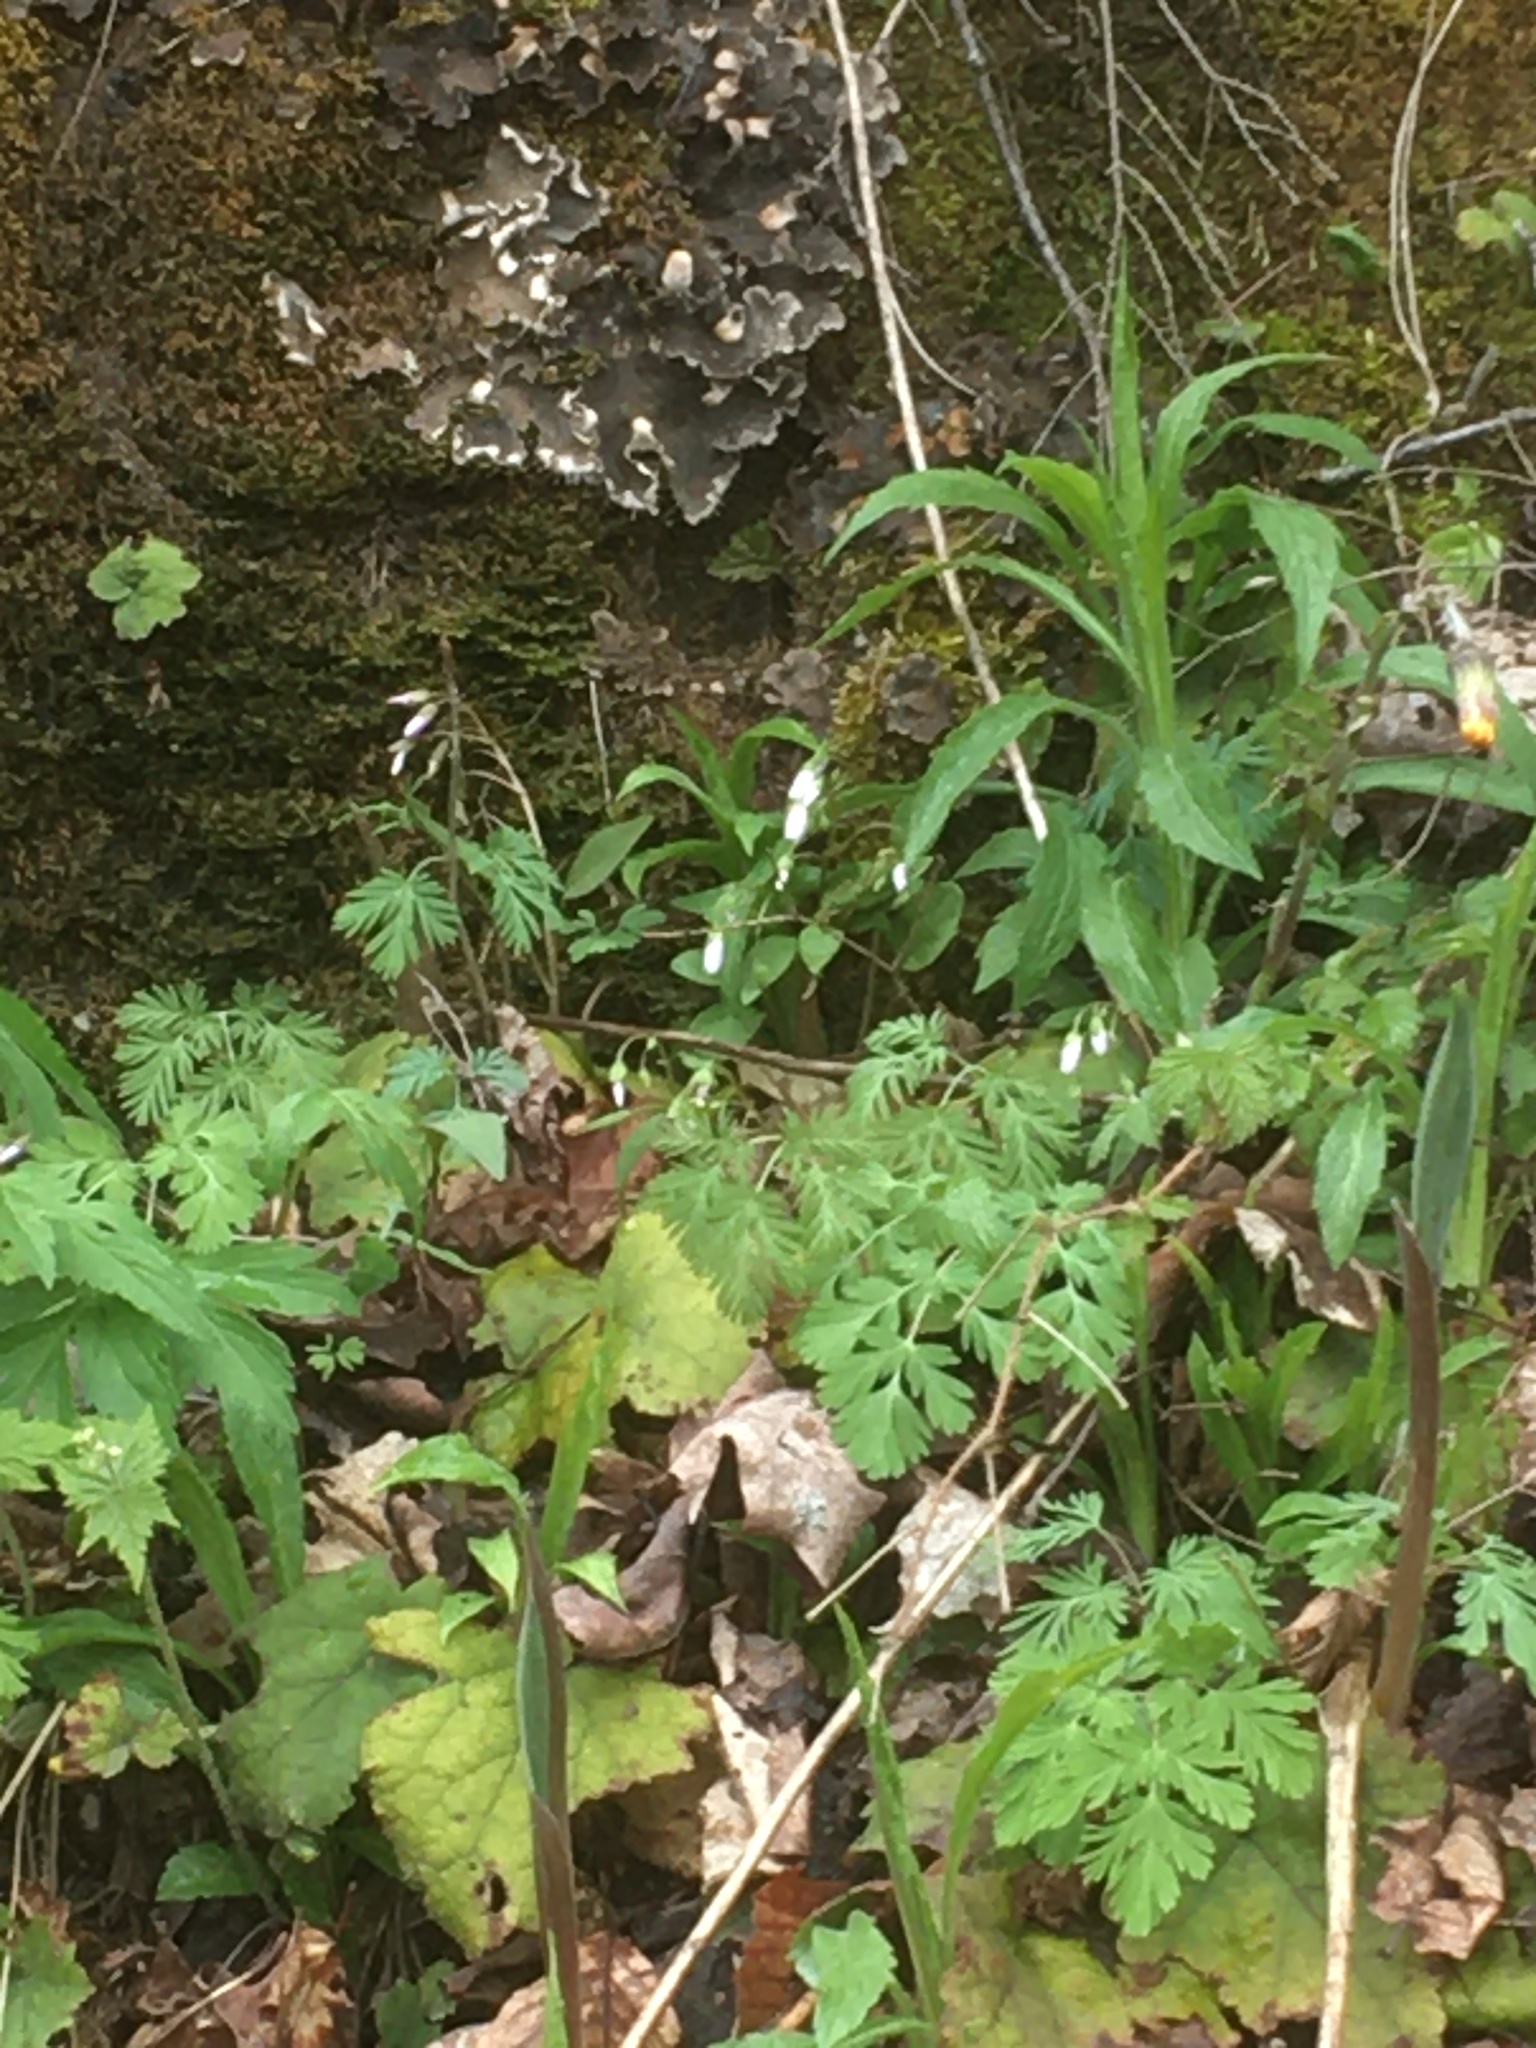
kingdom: Plantae
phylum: Tracheophyta
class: Magnoliopsida
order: Caryophyllales
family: Montiaceae
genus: Claytonia
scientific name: Claytonia caroliniana
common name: Carolina spring beauty
